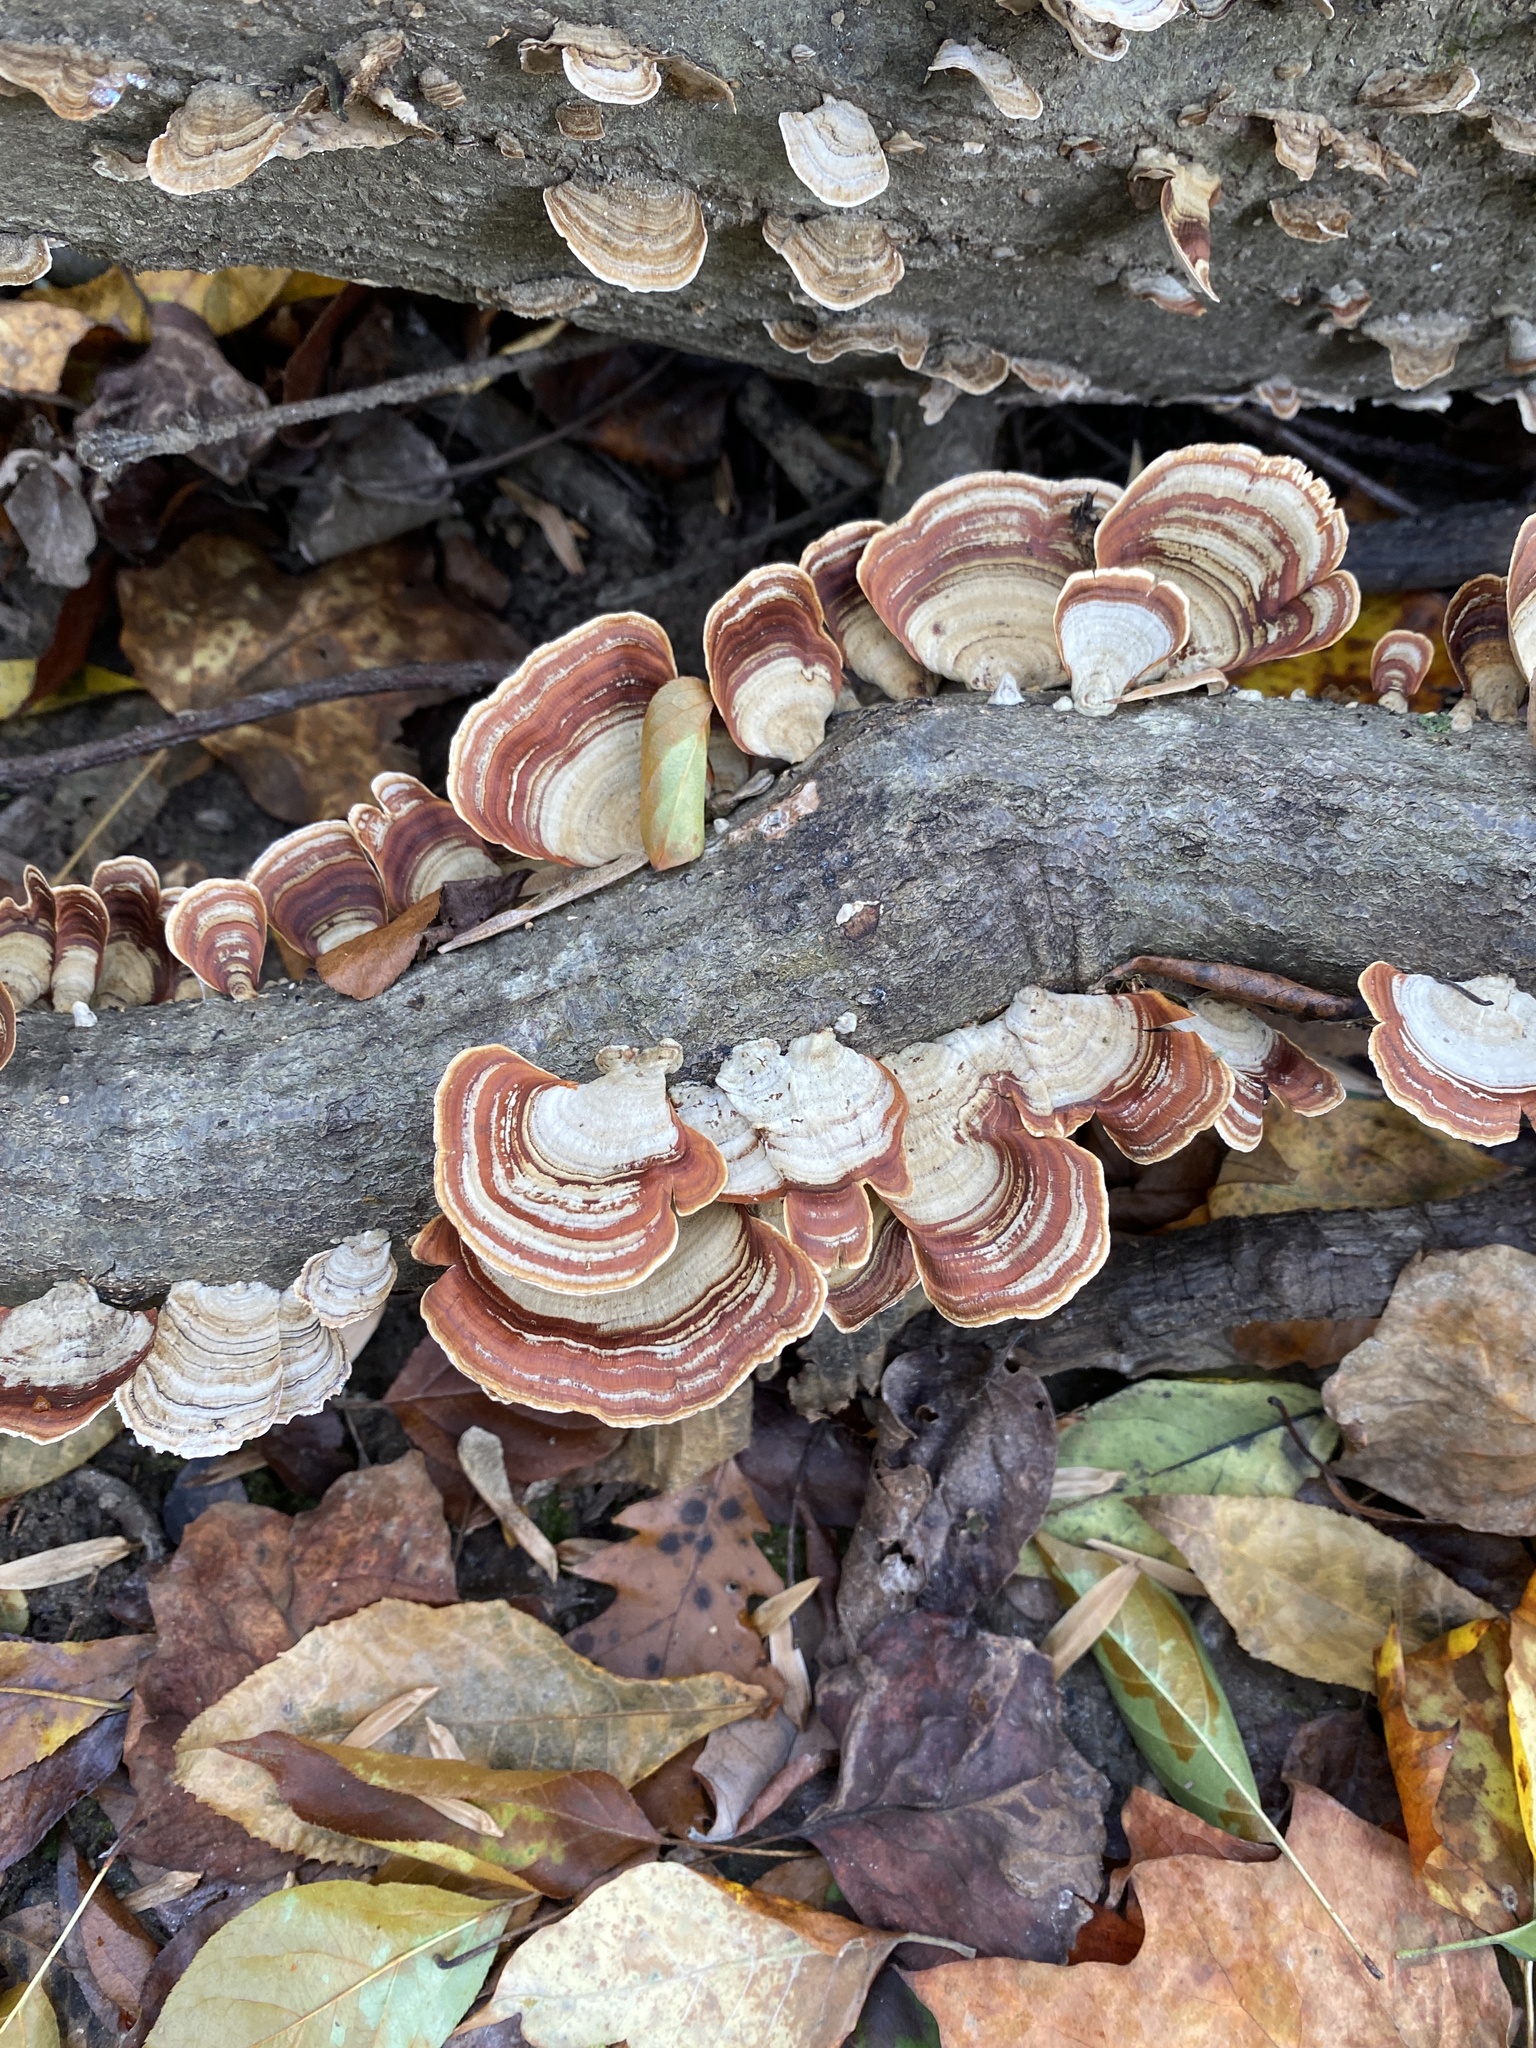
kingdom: Fungi
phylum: Basidiomycota
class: Agaricomycetes
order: Russulales
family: Stereaceae
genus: Stereum
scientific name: Stereum lobatum
